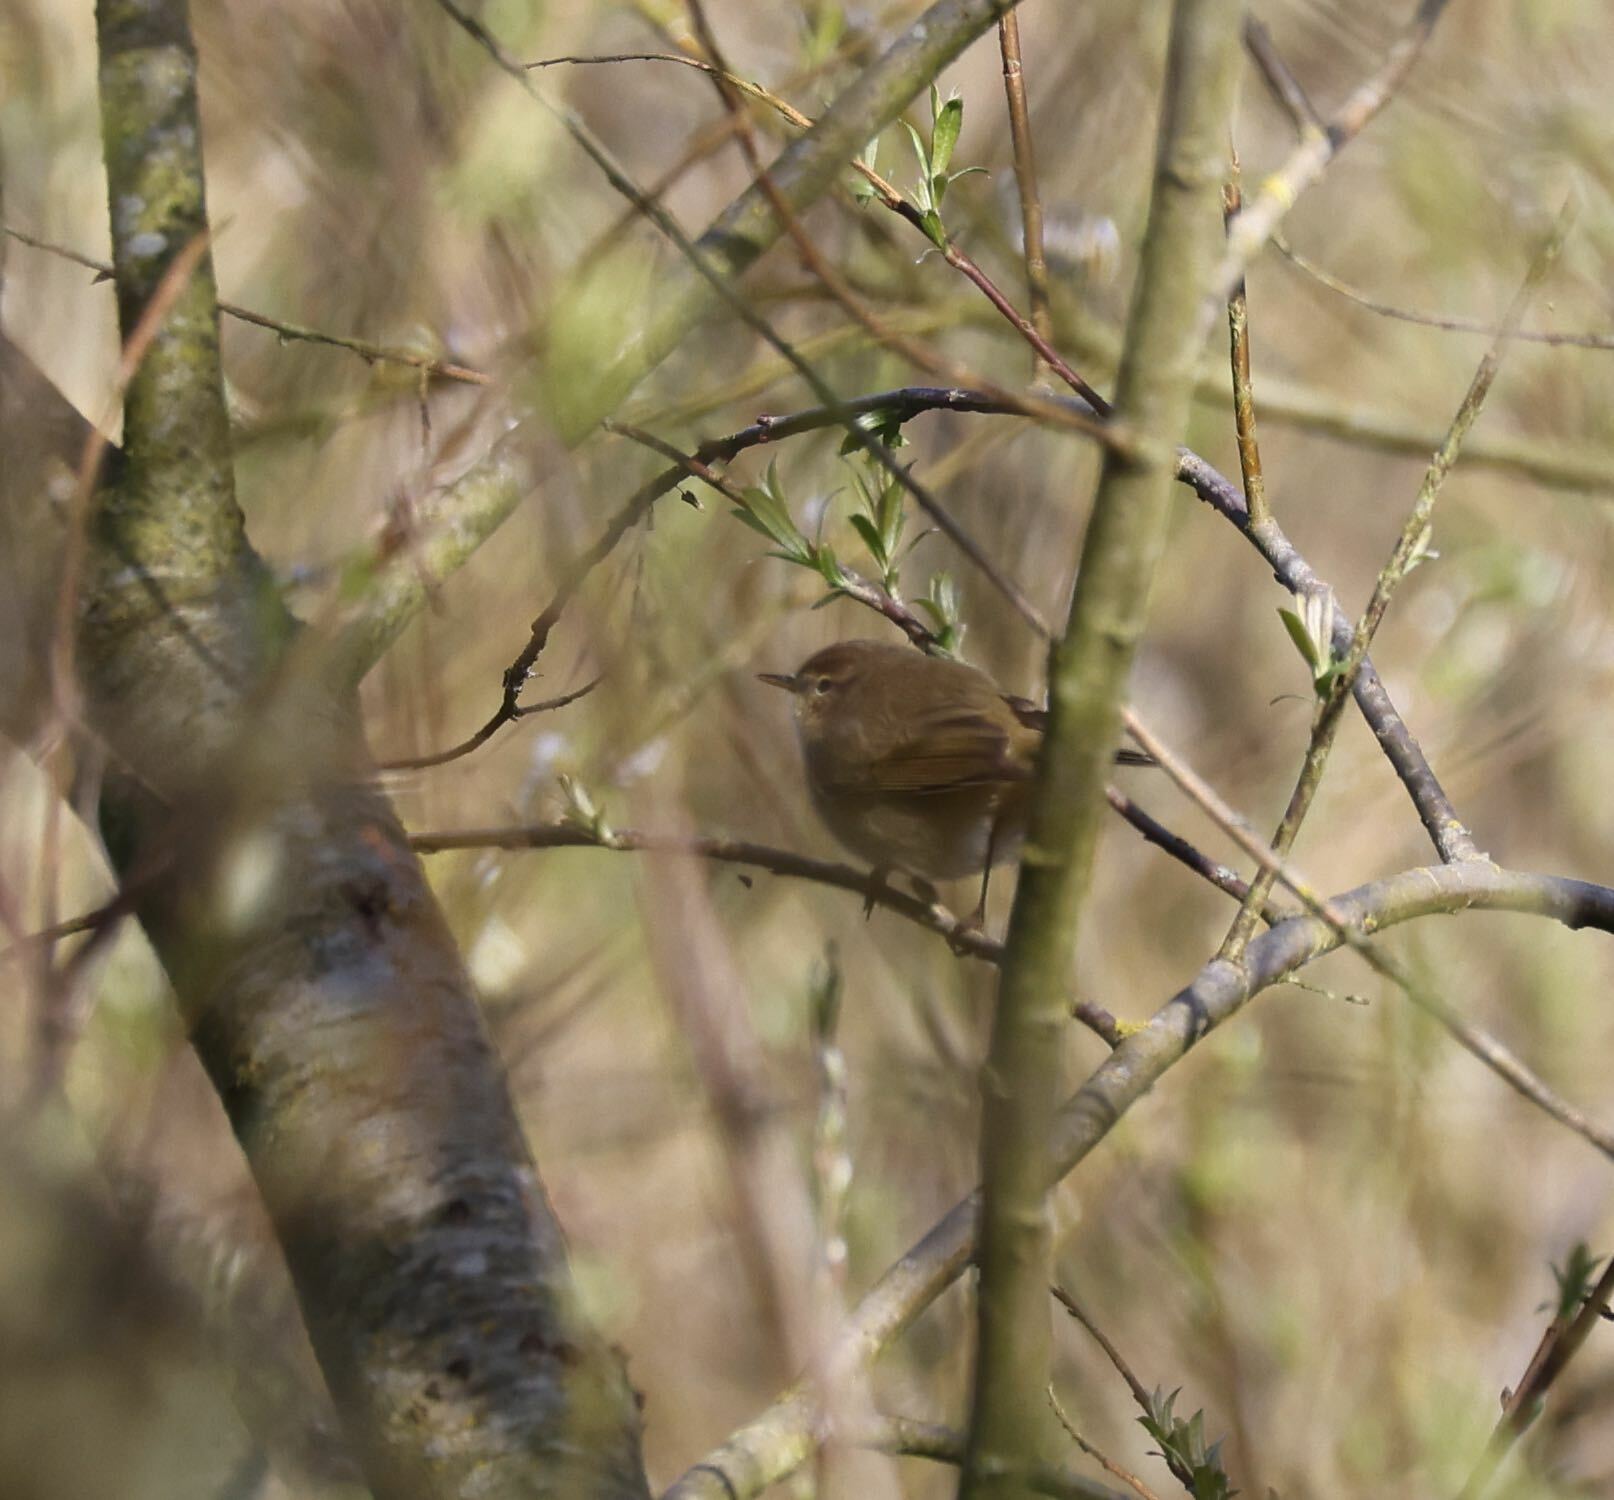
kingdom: Animalia
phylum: Chordata
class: Aves
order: Passeriformes
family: Phylloscopidae
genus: Phylloscopus
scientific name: Phylloscopus collybita
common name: Common chiffchaff
